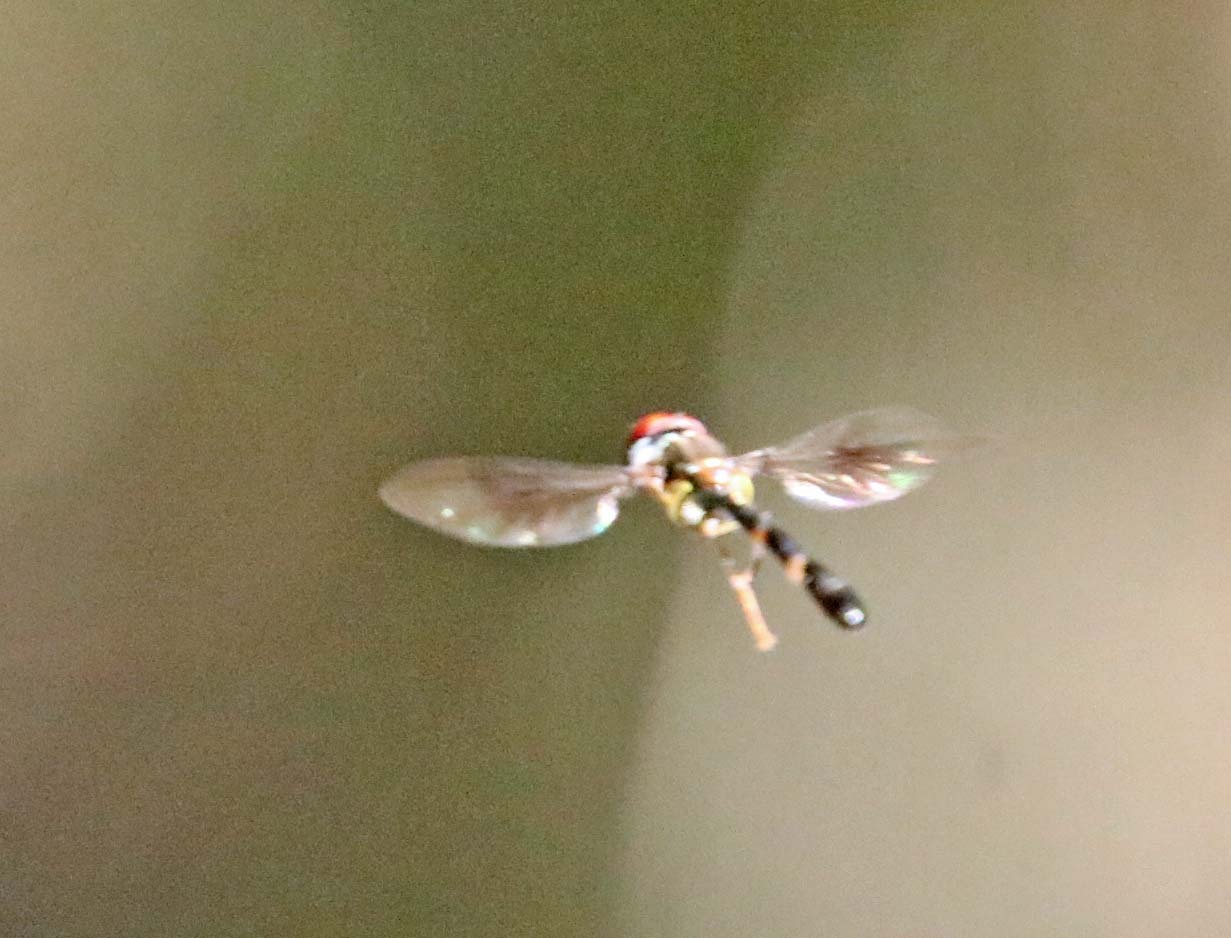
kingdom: Animalia
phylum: Arthropoda
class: Insecta
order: Diptera
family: Syrphidae
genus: Hypocritanus
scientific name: Hypocritanus fascipennis
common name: Eastern band-winged hover fly
